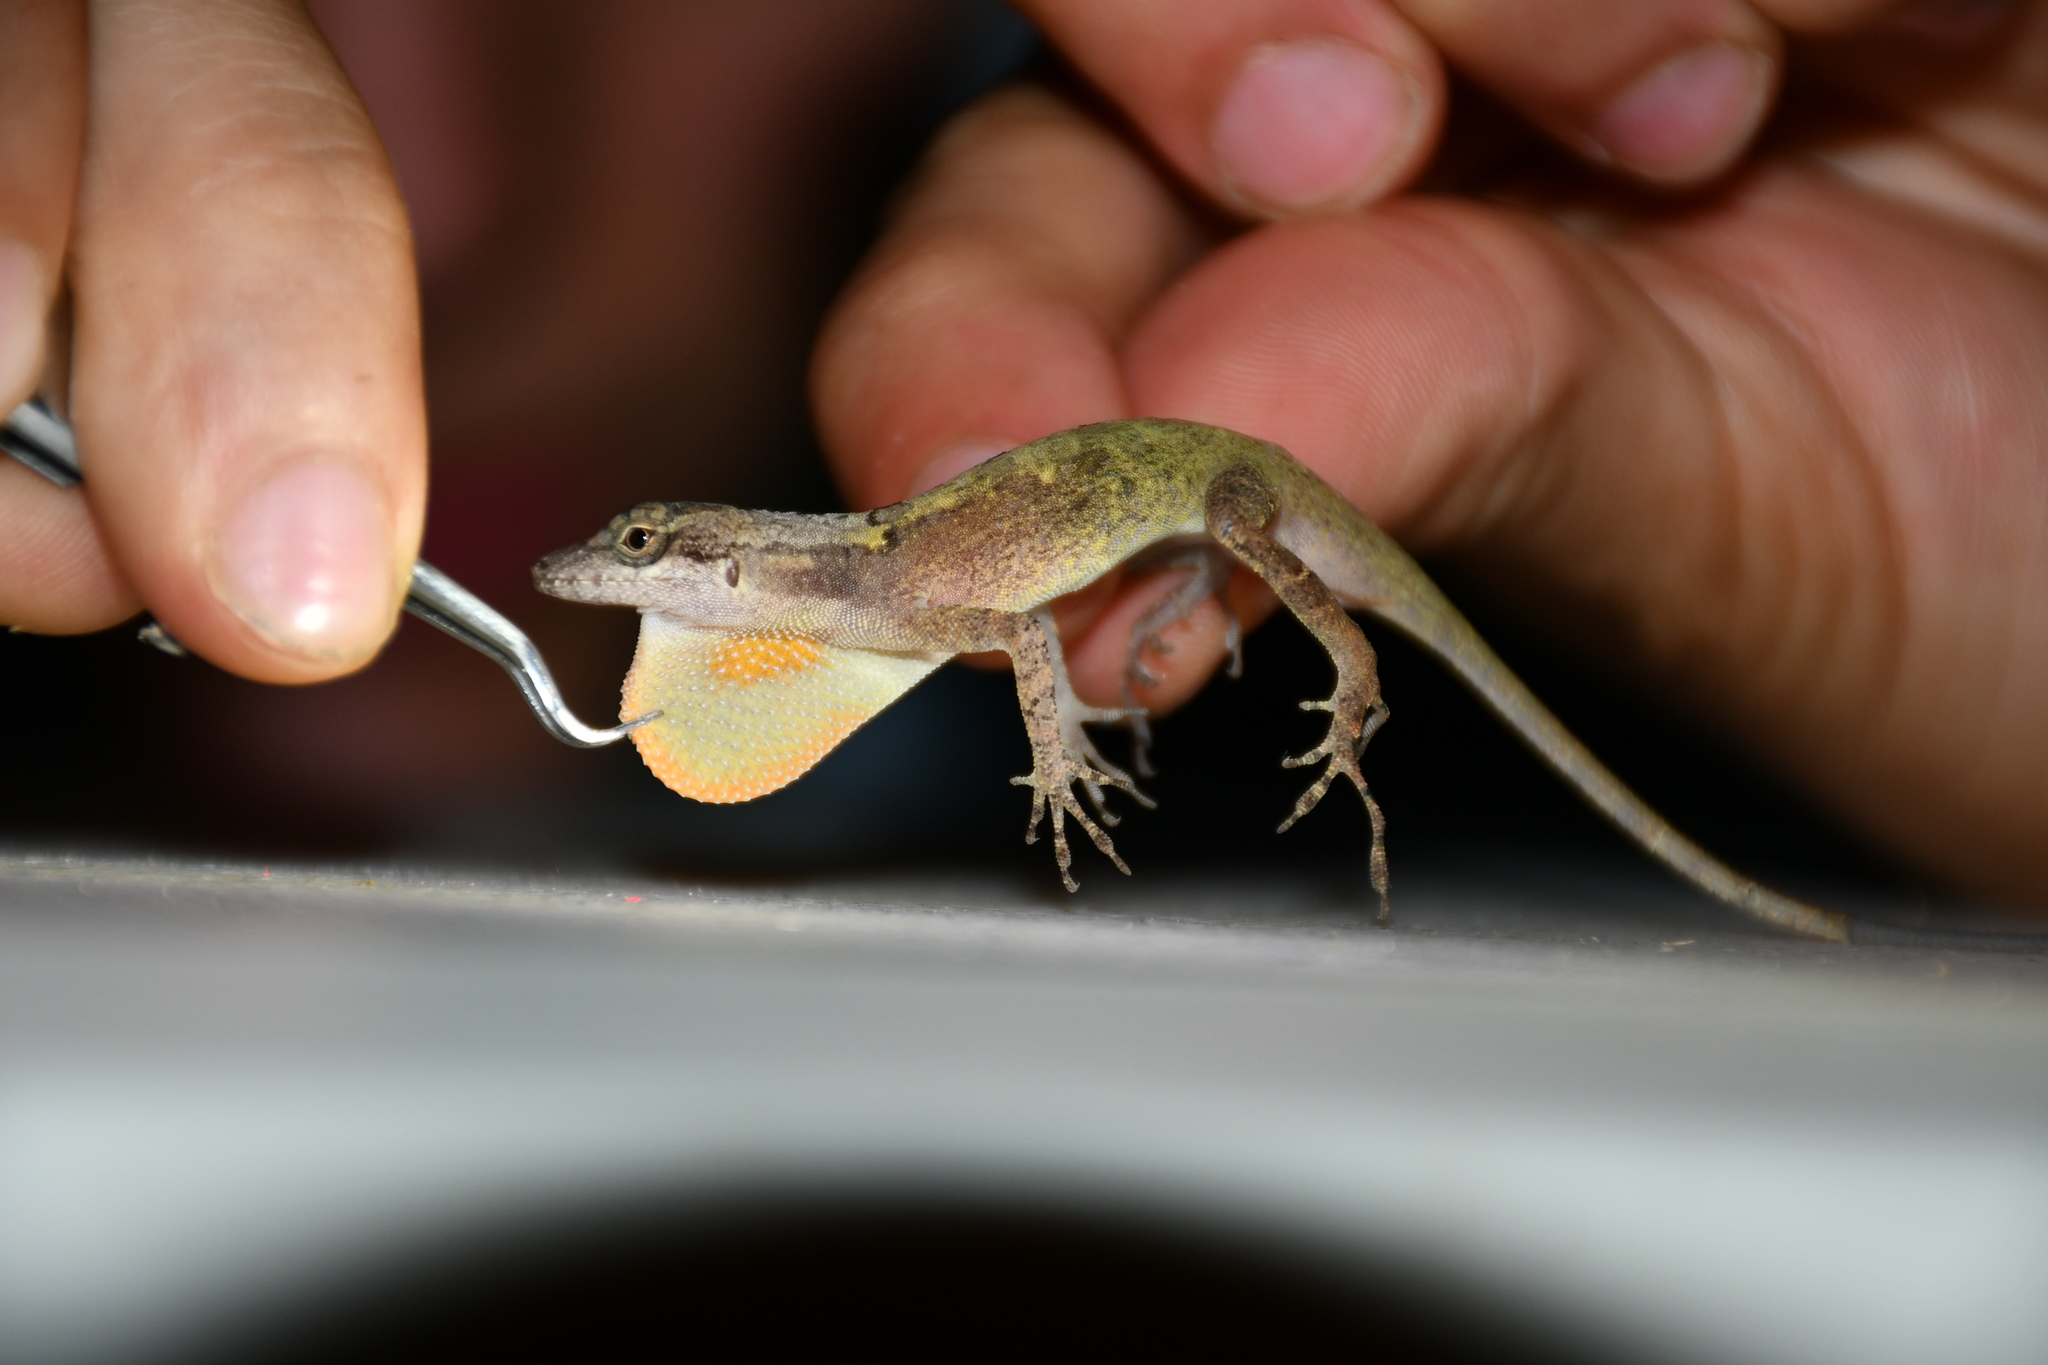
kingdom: Animalia
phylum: Chordata
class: Squamata
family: Dactyloidae
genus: Anolis
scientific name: Anolis rodriguezii
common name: Middle american smooth anole
